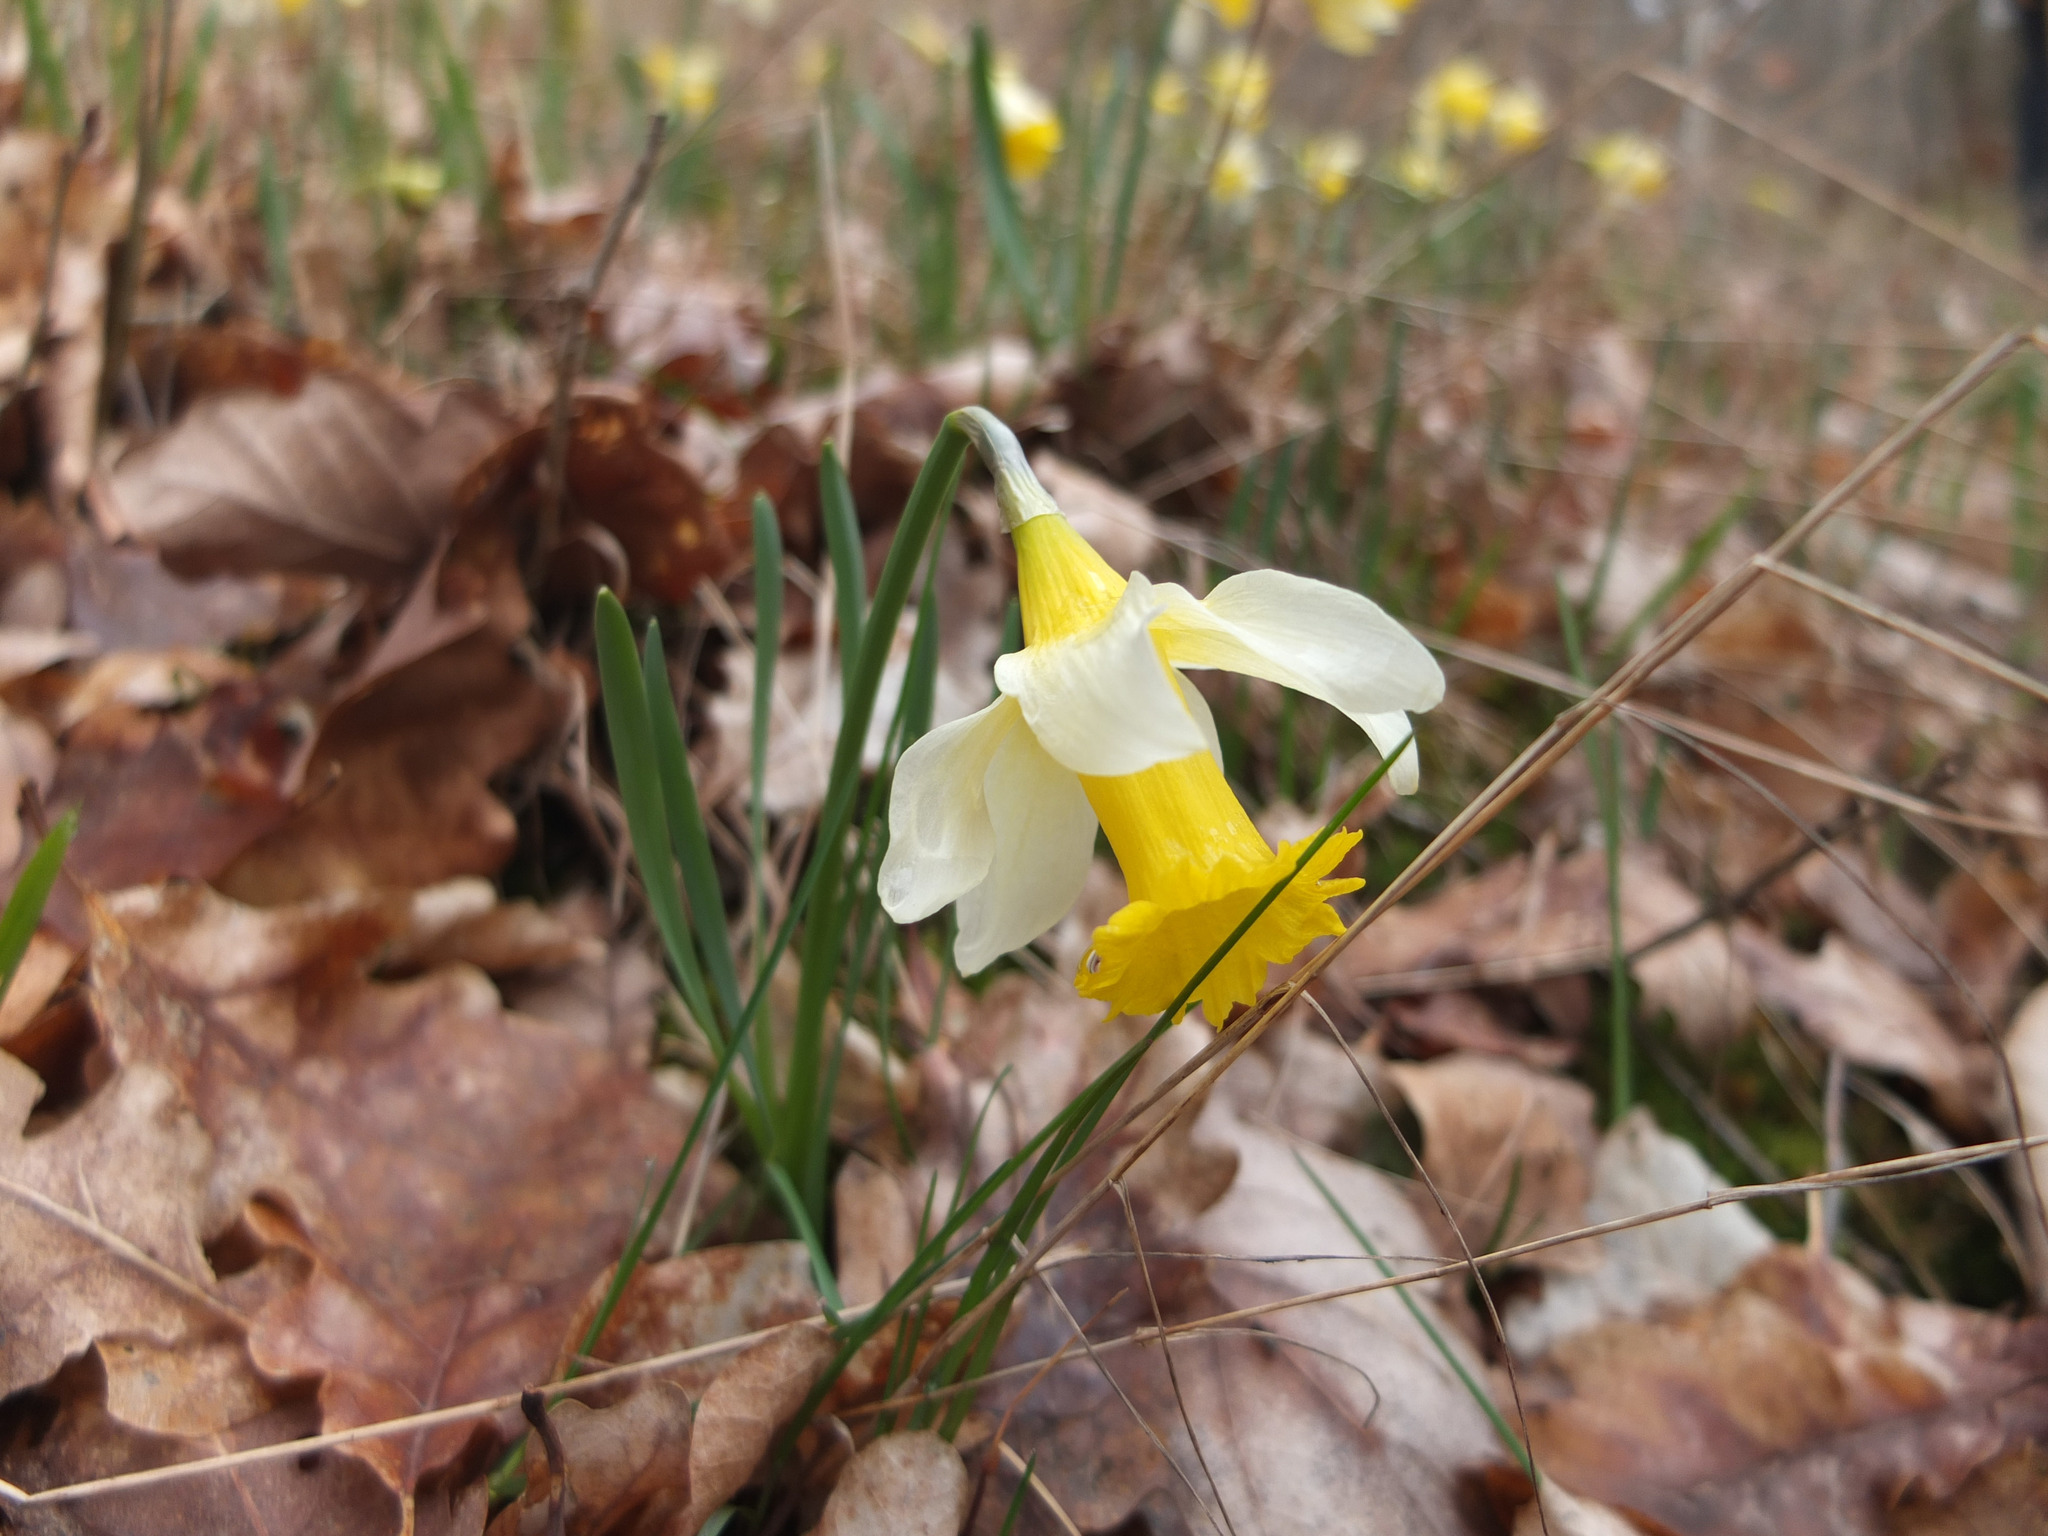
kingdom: Plantae
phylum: Tracheophyta
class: Liliopsida
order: Asparagales
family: Amaryllidaceae
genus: Narcissus
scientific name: Narcissus pseudonarcissus
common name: Daffodil
